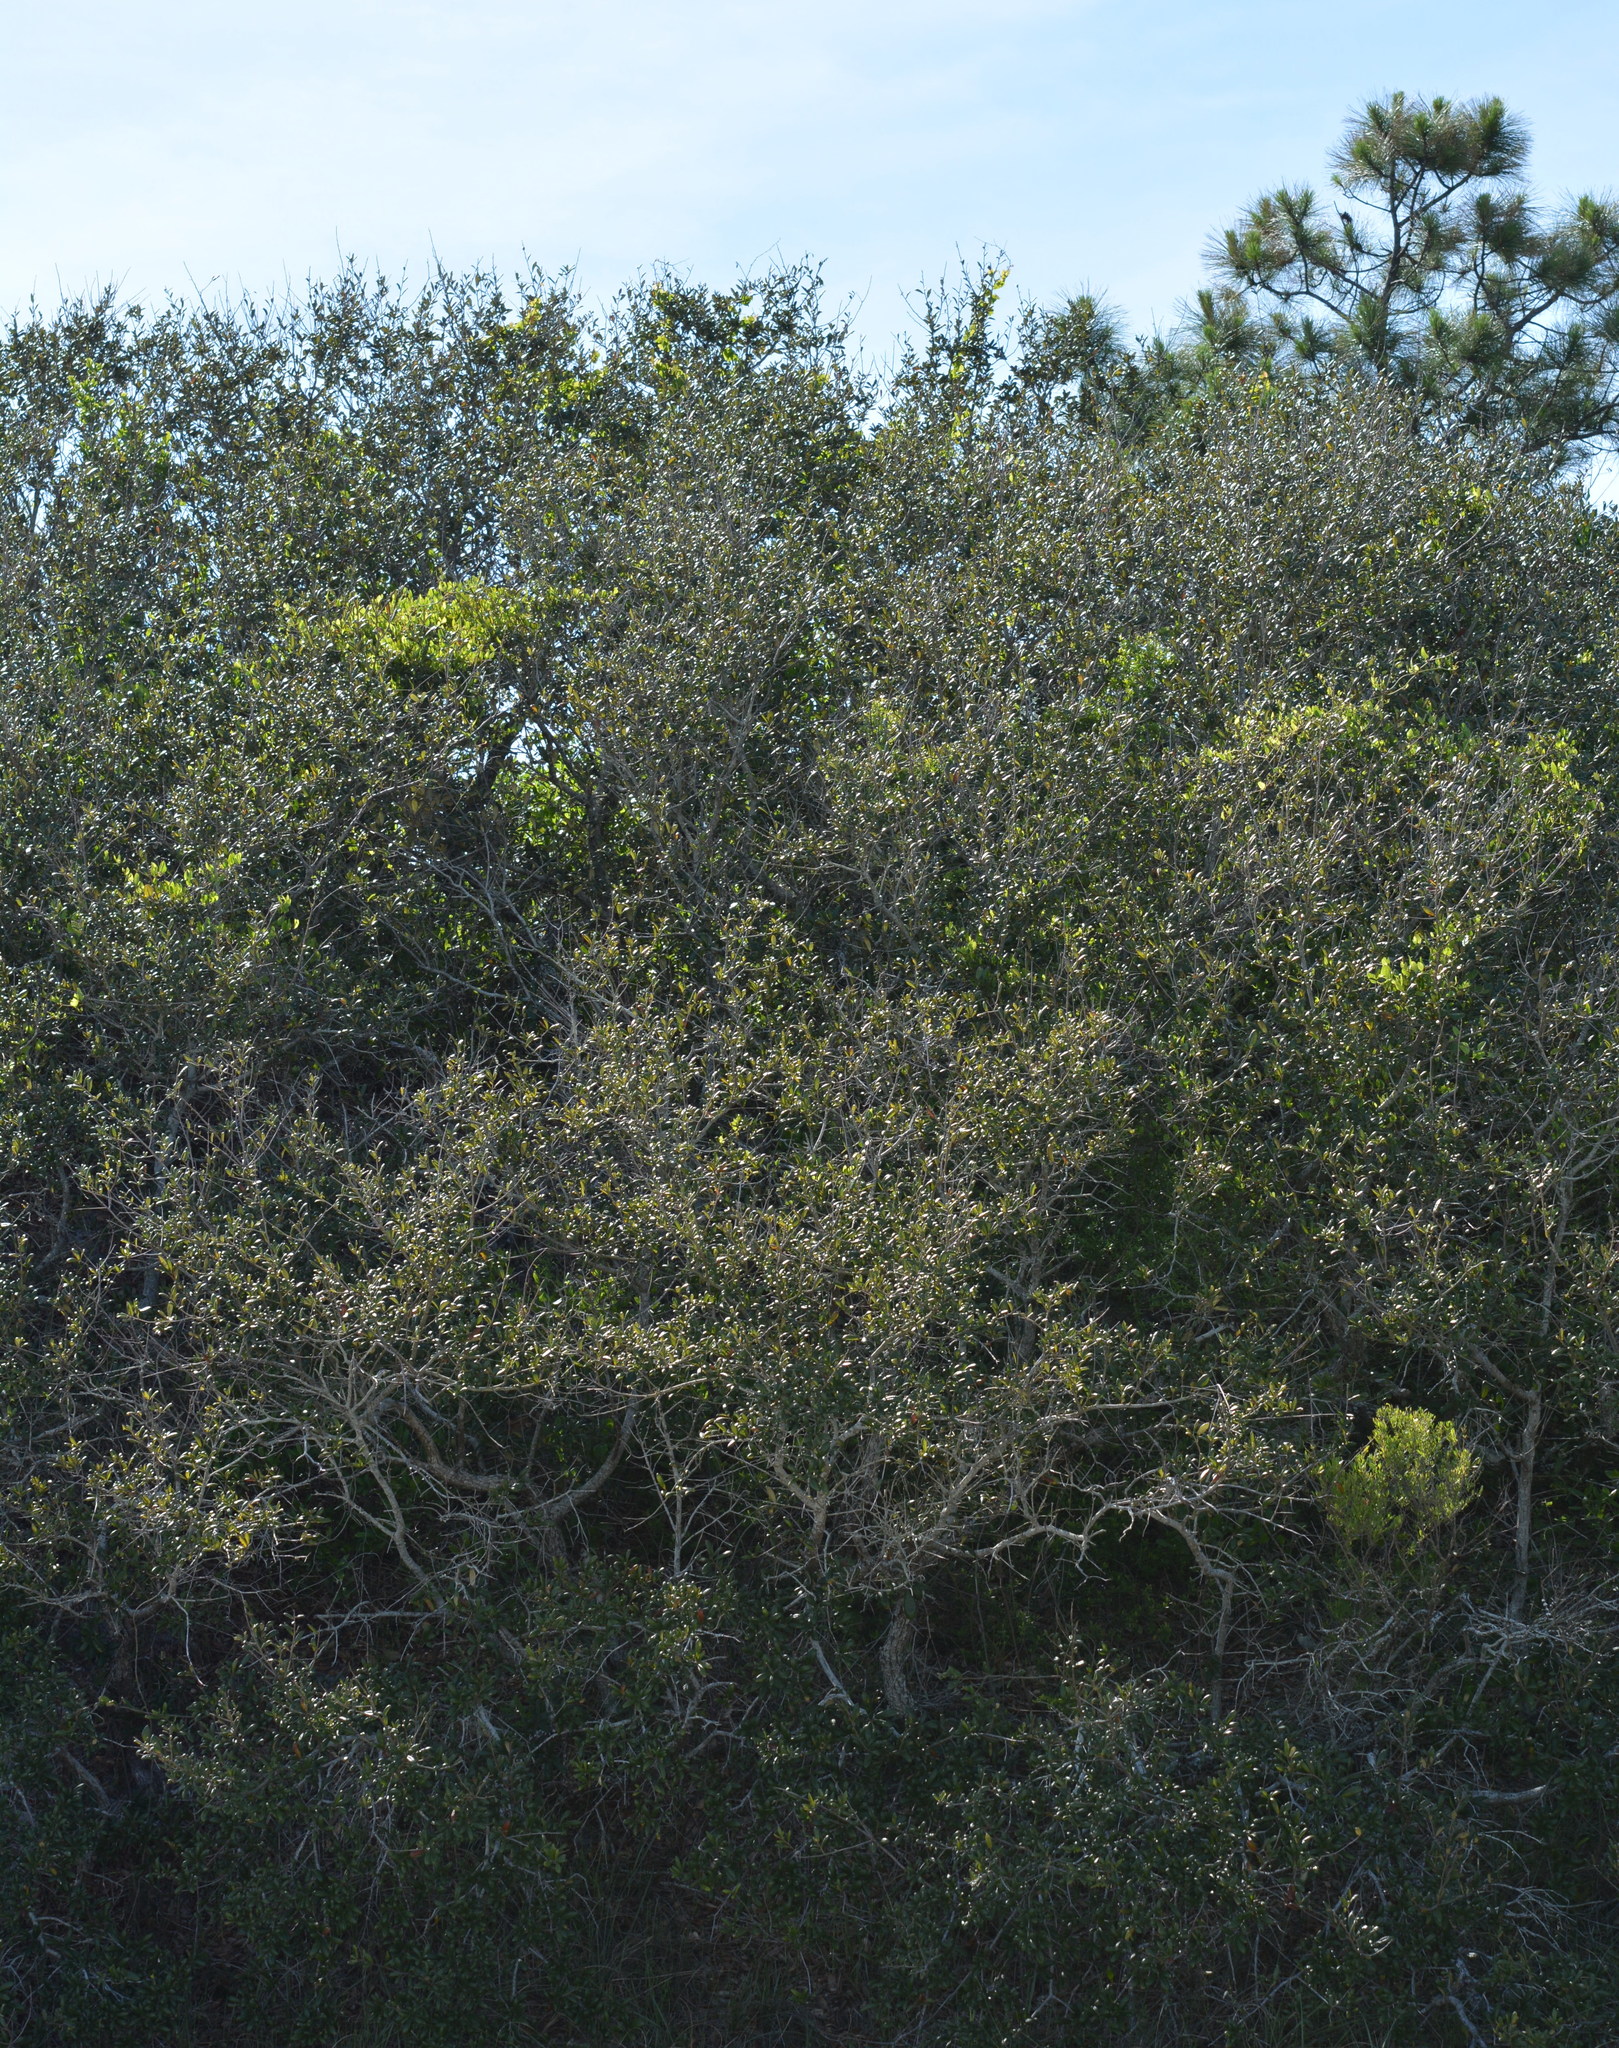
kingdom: Plantae
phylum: Tracheophyta
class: Magnoliopsida
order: Fagales
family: Fagaceae
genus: Quercus
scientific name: Quercus geminata
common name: Sand live oak
